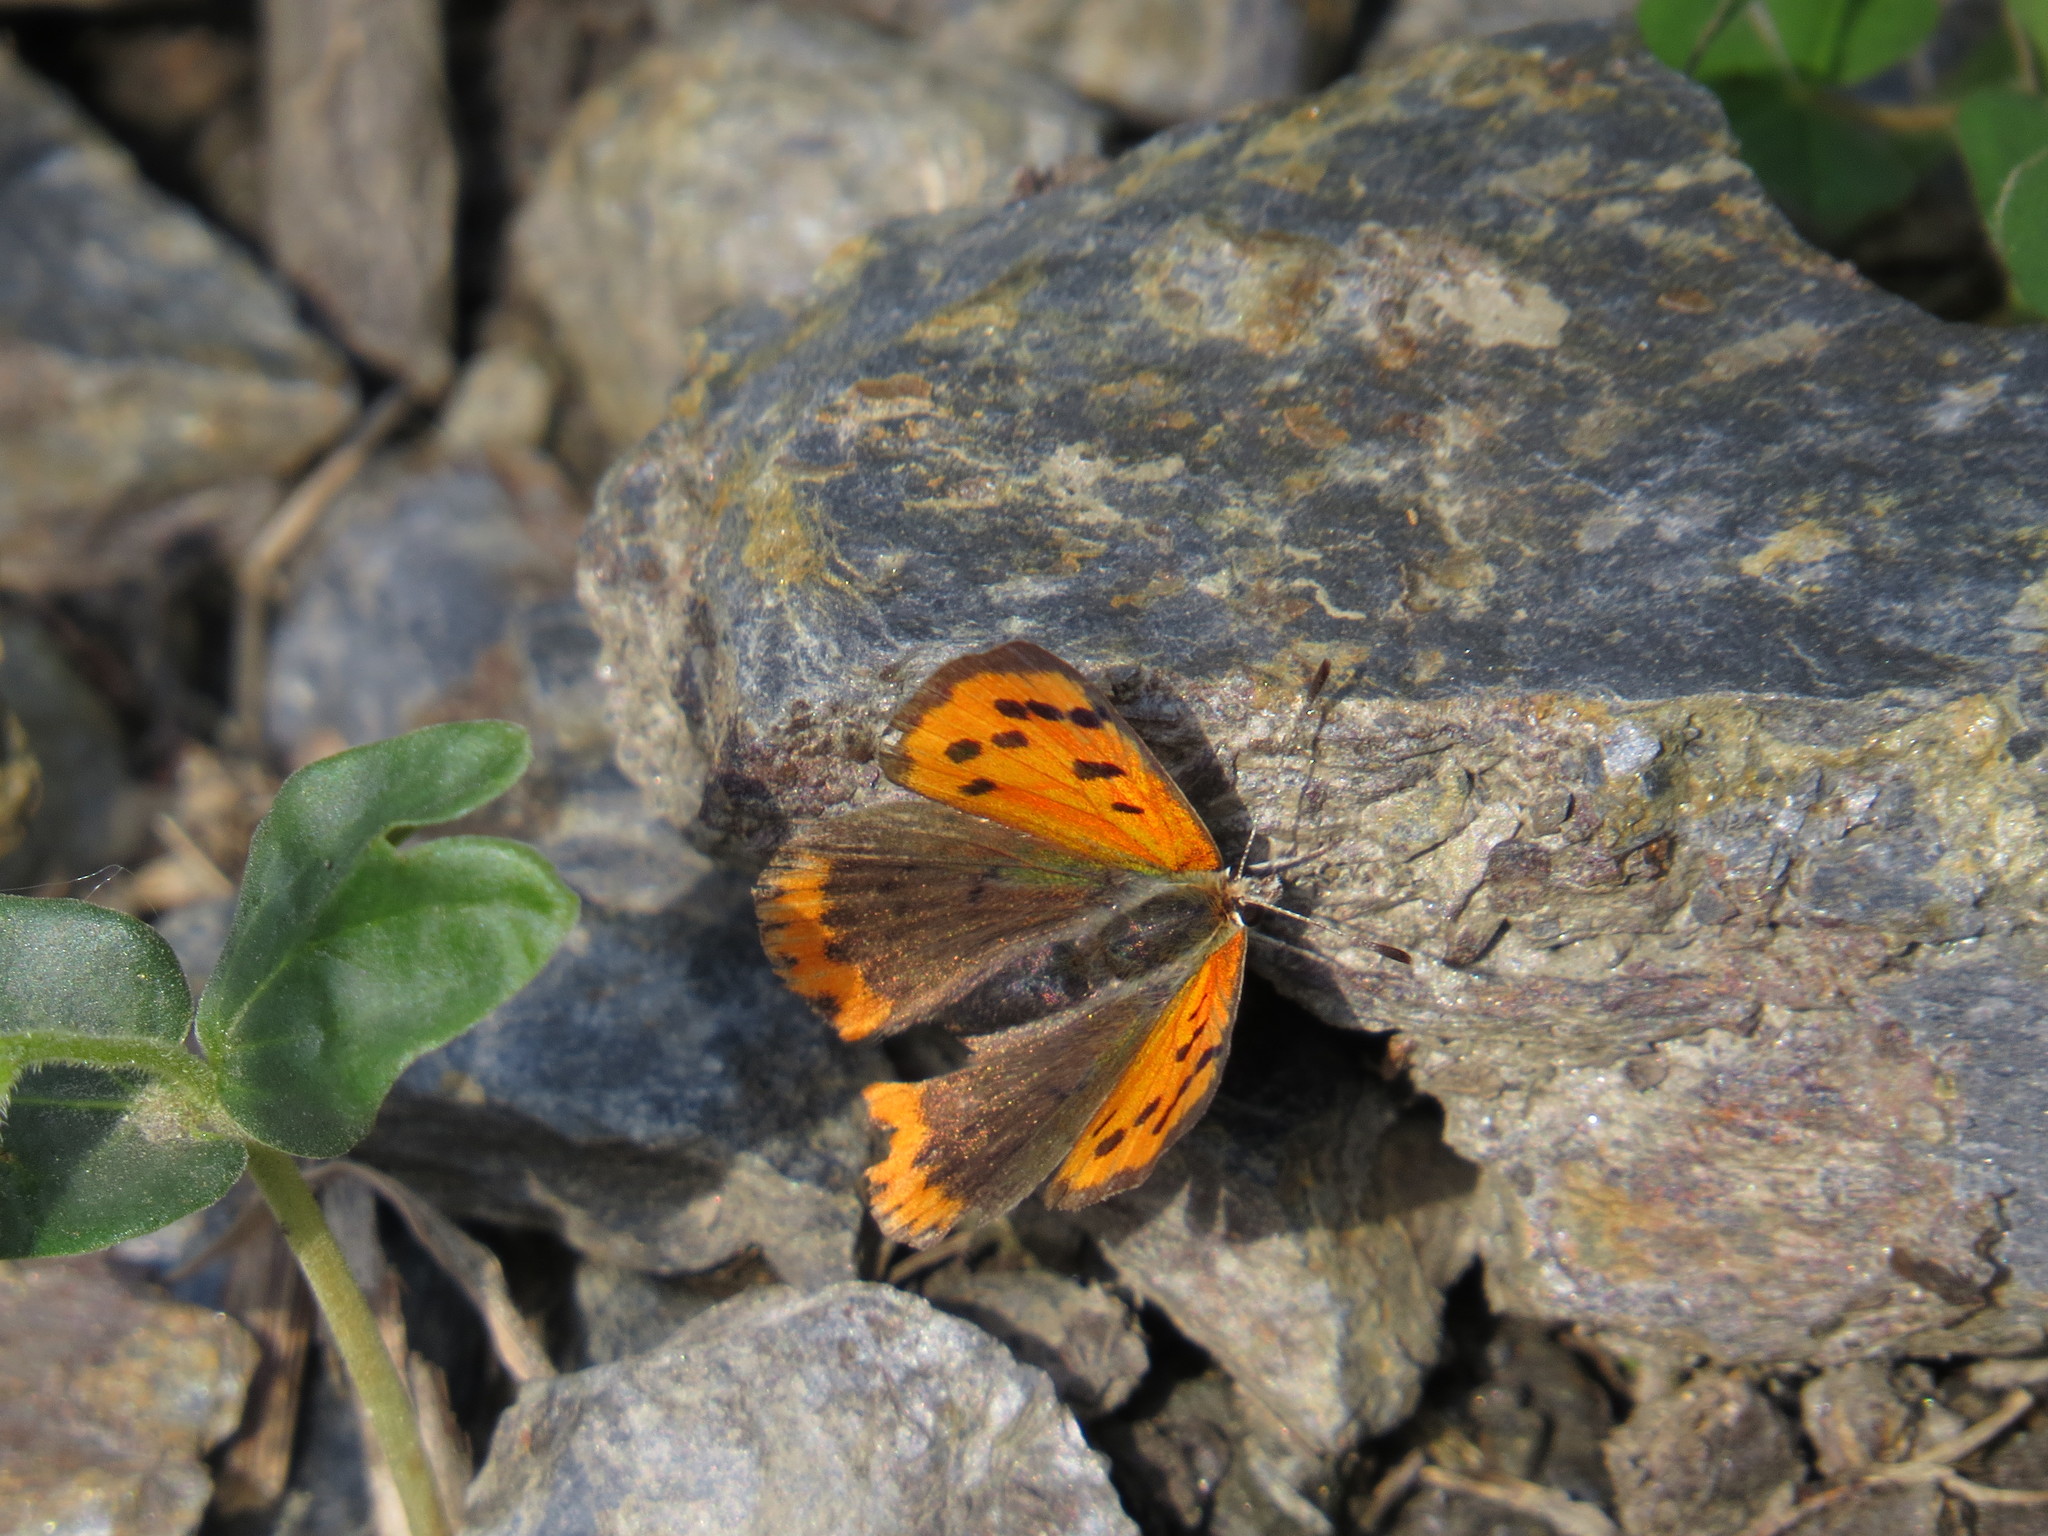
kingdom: Animalia
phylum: Arthropoda
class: Insecta
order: Lepidoptera
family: Lycaenidae
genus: Lycaena
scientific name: Lycaena phlaeas
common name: Small copper
